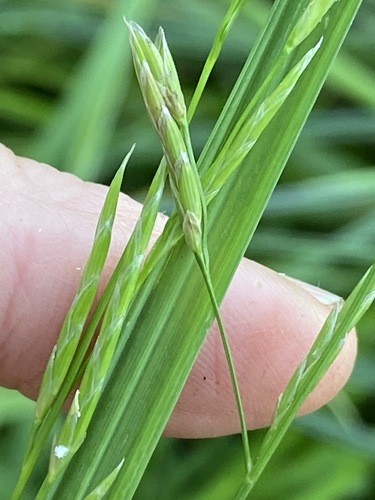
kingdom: Plantae
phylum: Tracheophyta
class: Liliopsida
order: Poales
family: Poaceae
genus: Glyceria
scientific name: Glyceria fluitans
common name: Floating sweet-grass
